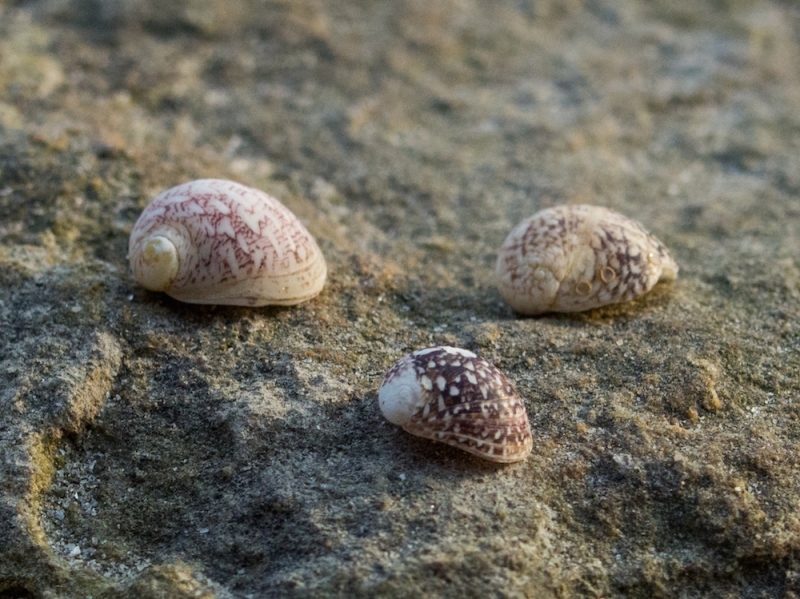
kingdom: Animalia
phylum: Mollusca
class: Gastropoda
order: Cycloneritida
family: Neritidae
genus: Theodoxus
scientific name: Theodoxus fluviatilis
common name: River nerite
